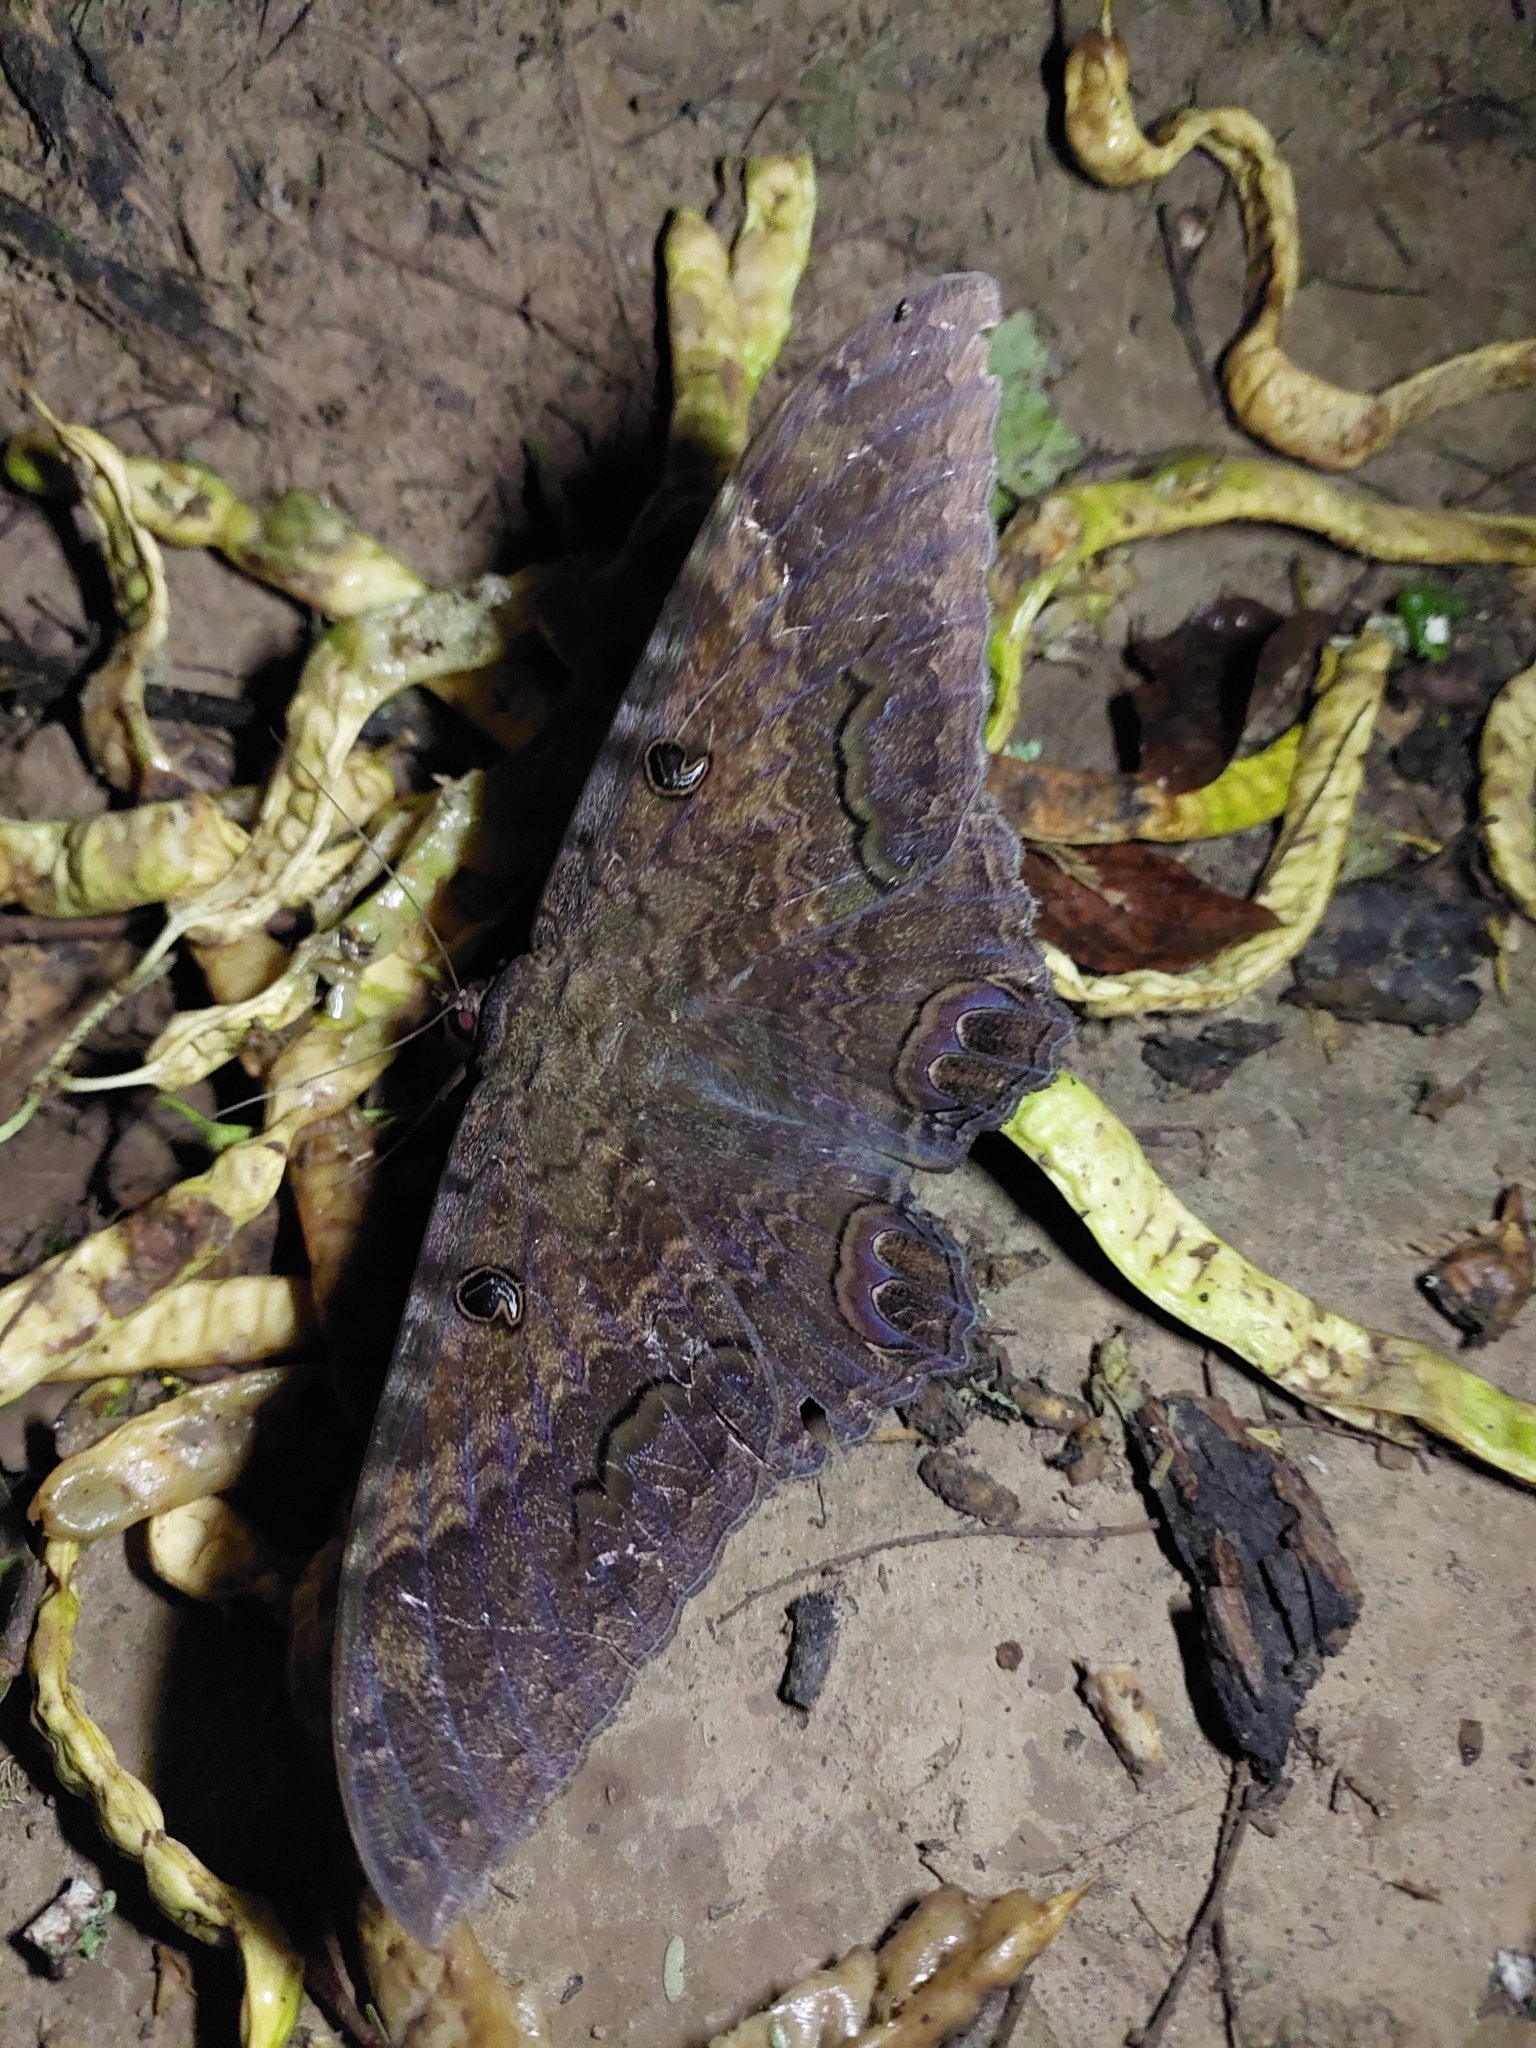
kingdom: Animalia
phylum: Arthropoda
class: Insecta
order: Lepidoptera
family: Erebidae
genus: Ascalapha
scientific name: Ascalapha odorata
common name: Black witch
